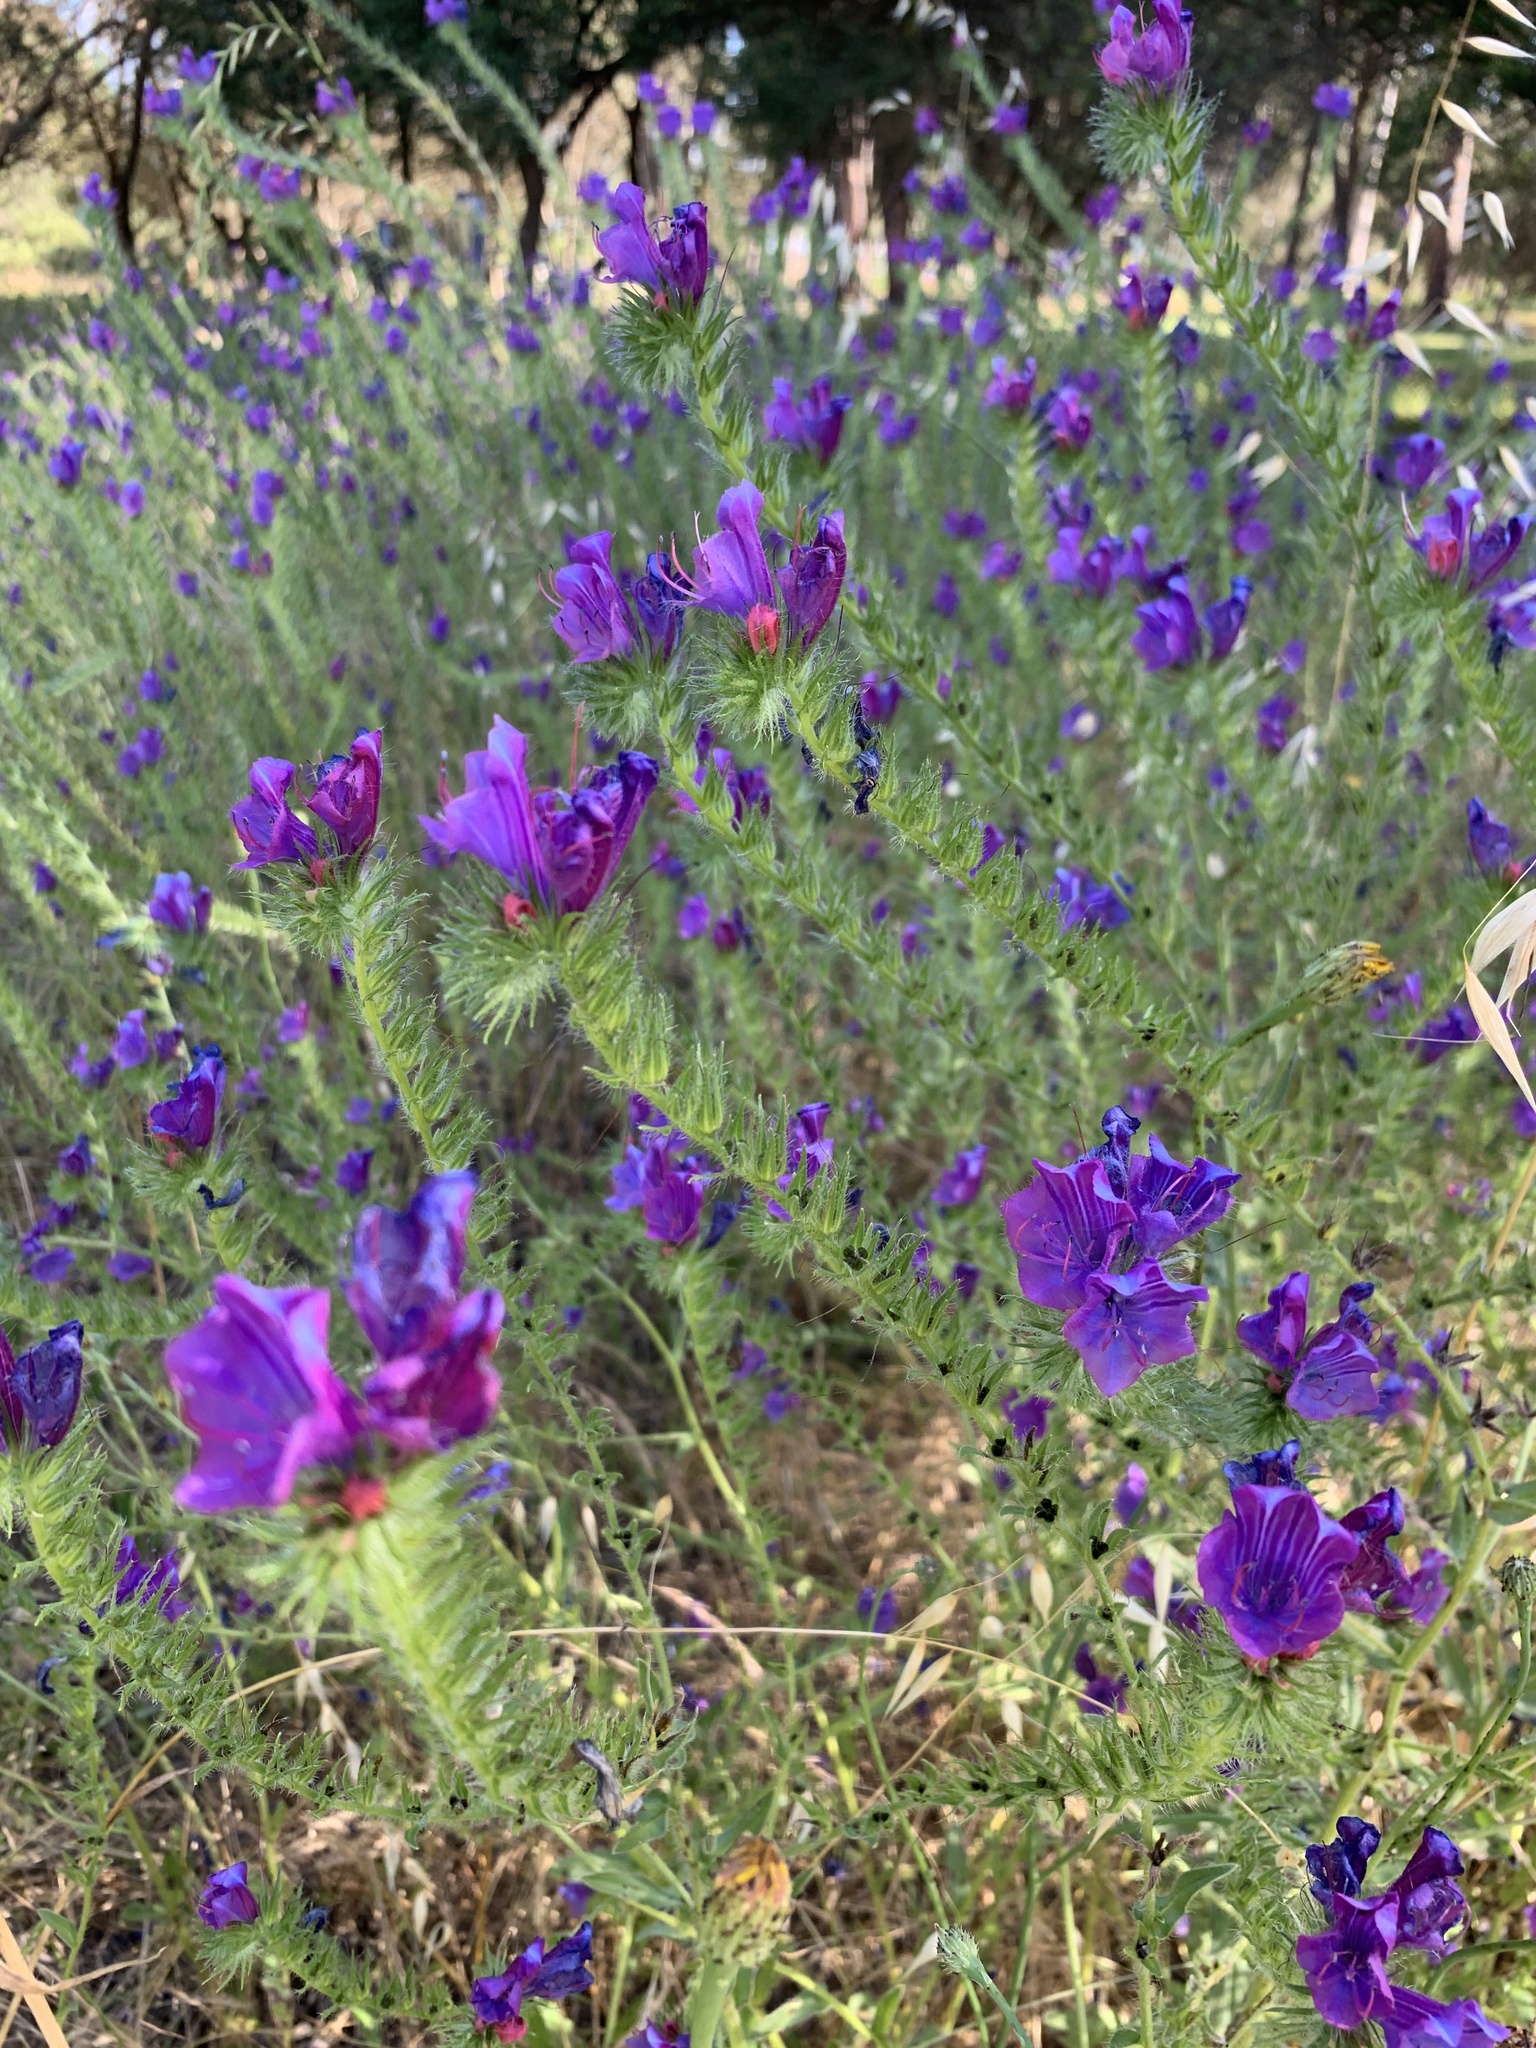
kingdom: Plantae
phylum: Tracheophyta
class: Magnoliopsida
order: Boraginales
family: Boraginaceae
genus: Echium
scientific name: Echium plantagineum
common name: Purple viper's-bugloss
